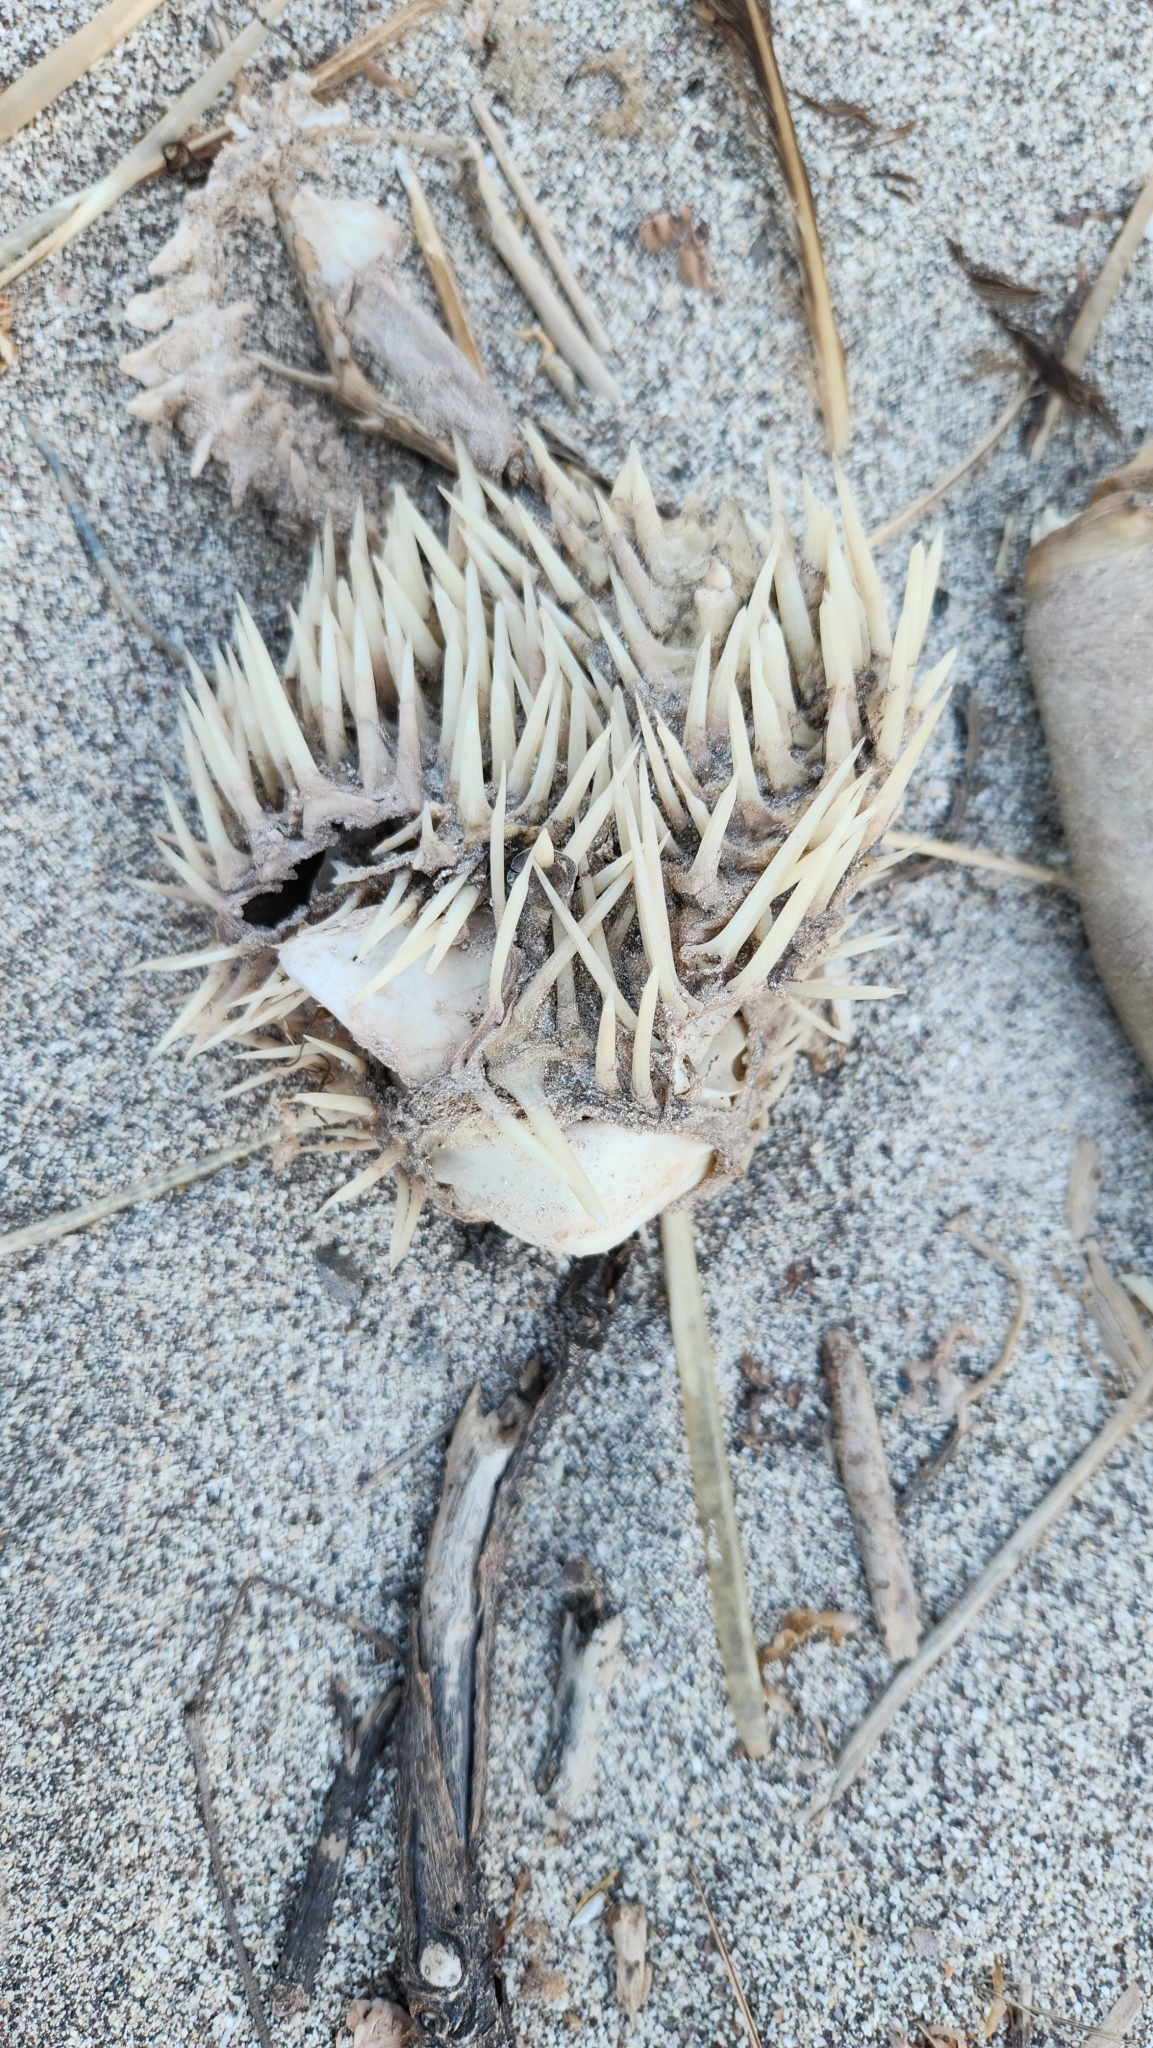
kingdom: Animalia
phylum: Chordata
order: Tetraodontiformes
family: Diodontidae
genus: Diodon
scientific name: Diodon holocanthus
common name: Balloonfish
